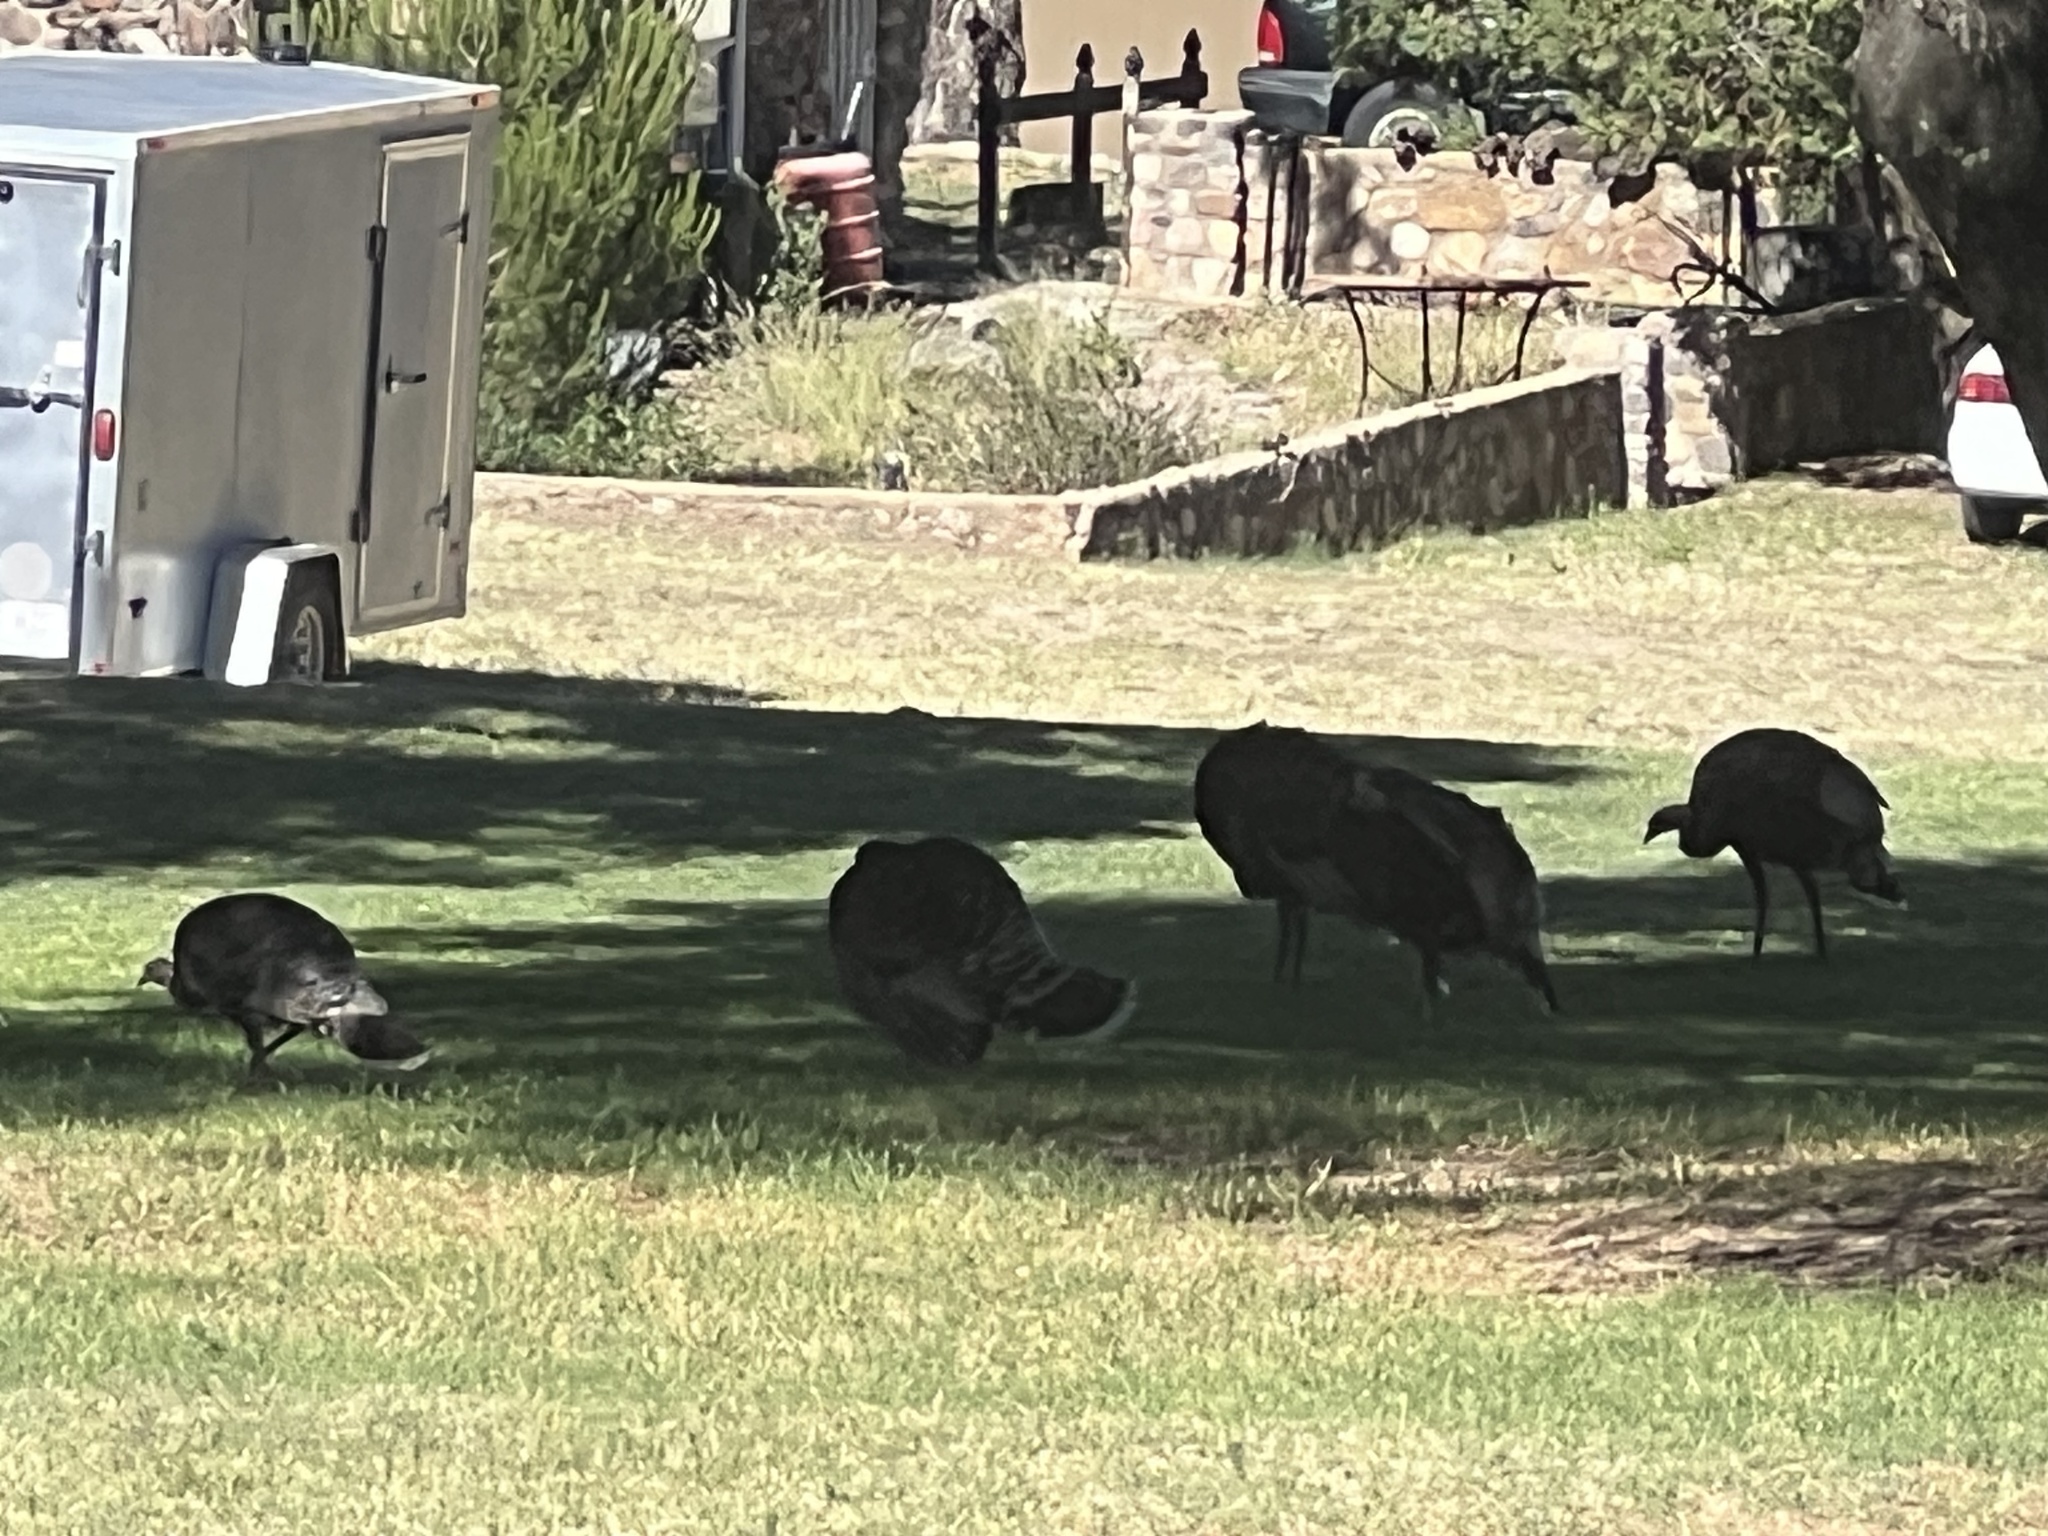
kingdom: Animalia
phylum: Chordata
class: Aves
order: Galliformes
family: Phasianidae
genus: Meleagris
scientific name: Meleagris gallopavo
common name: Wild turkey
